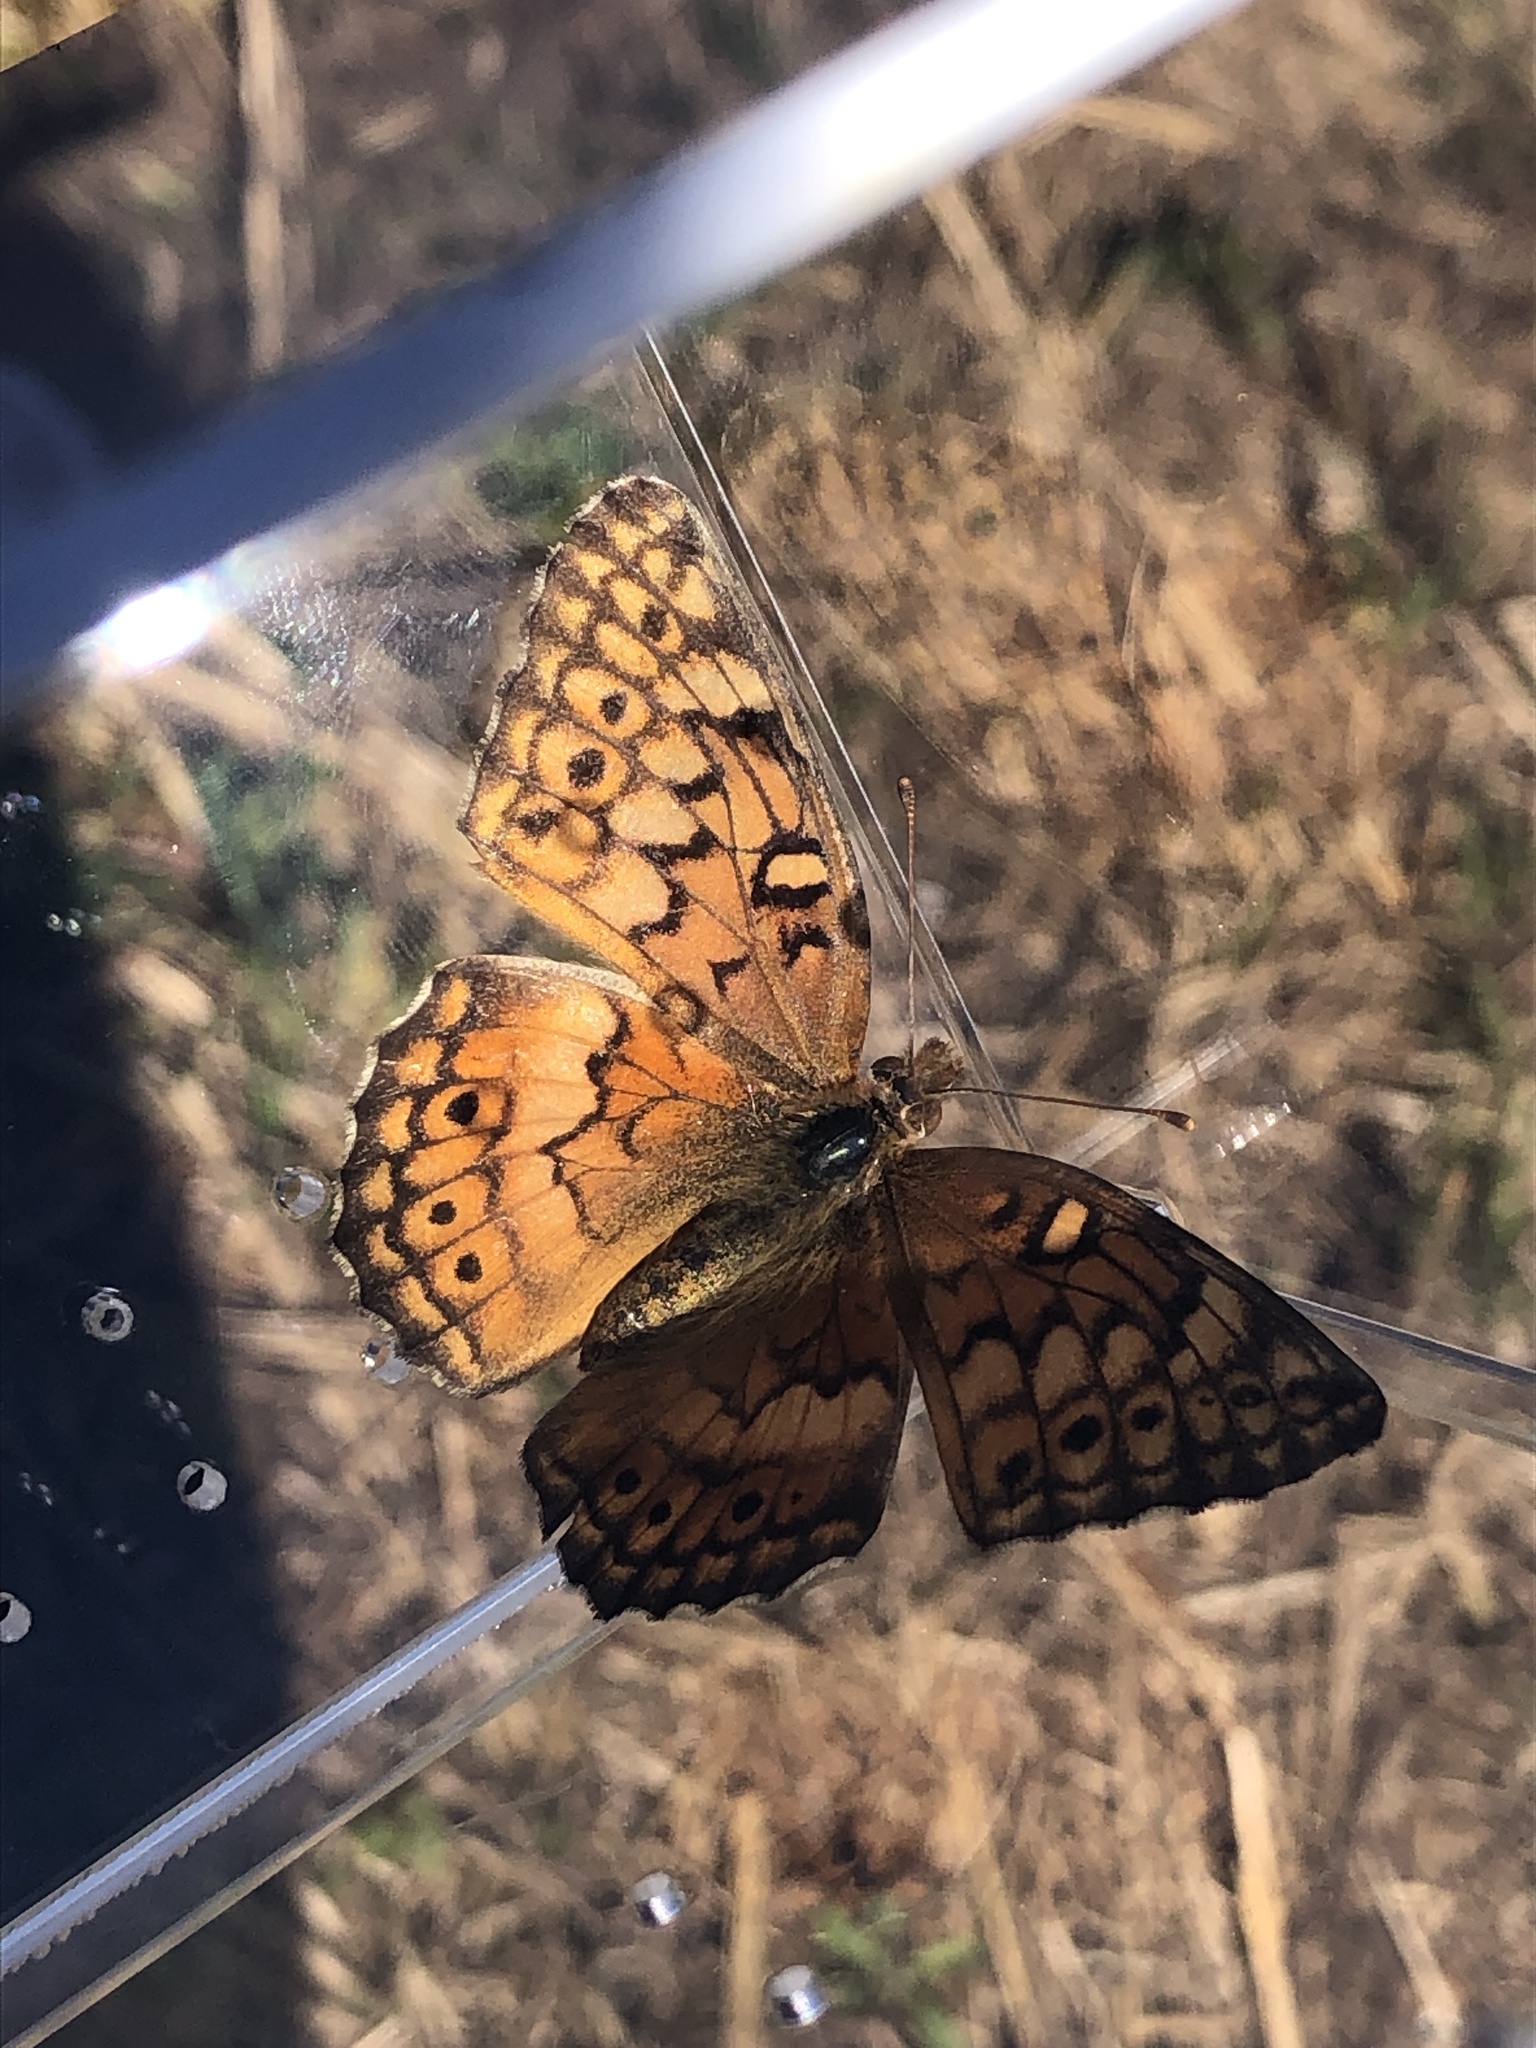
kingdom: Animalia
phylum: Arthropoda
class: Insecta
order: Lepidoptera
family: Nymphalidae
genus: Euptoieta
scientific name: Euptoieta claudia
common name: Variegated fritillary
